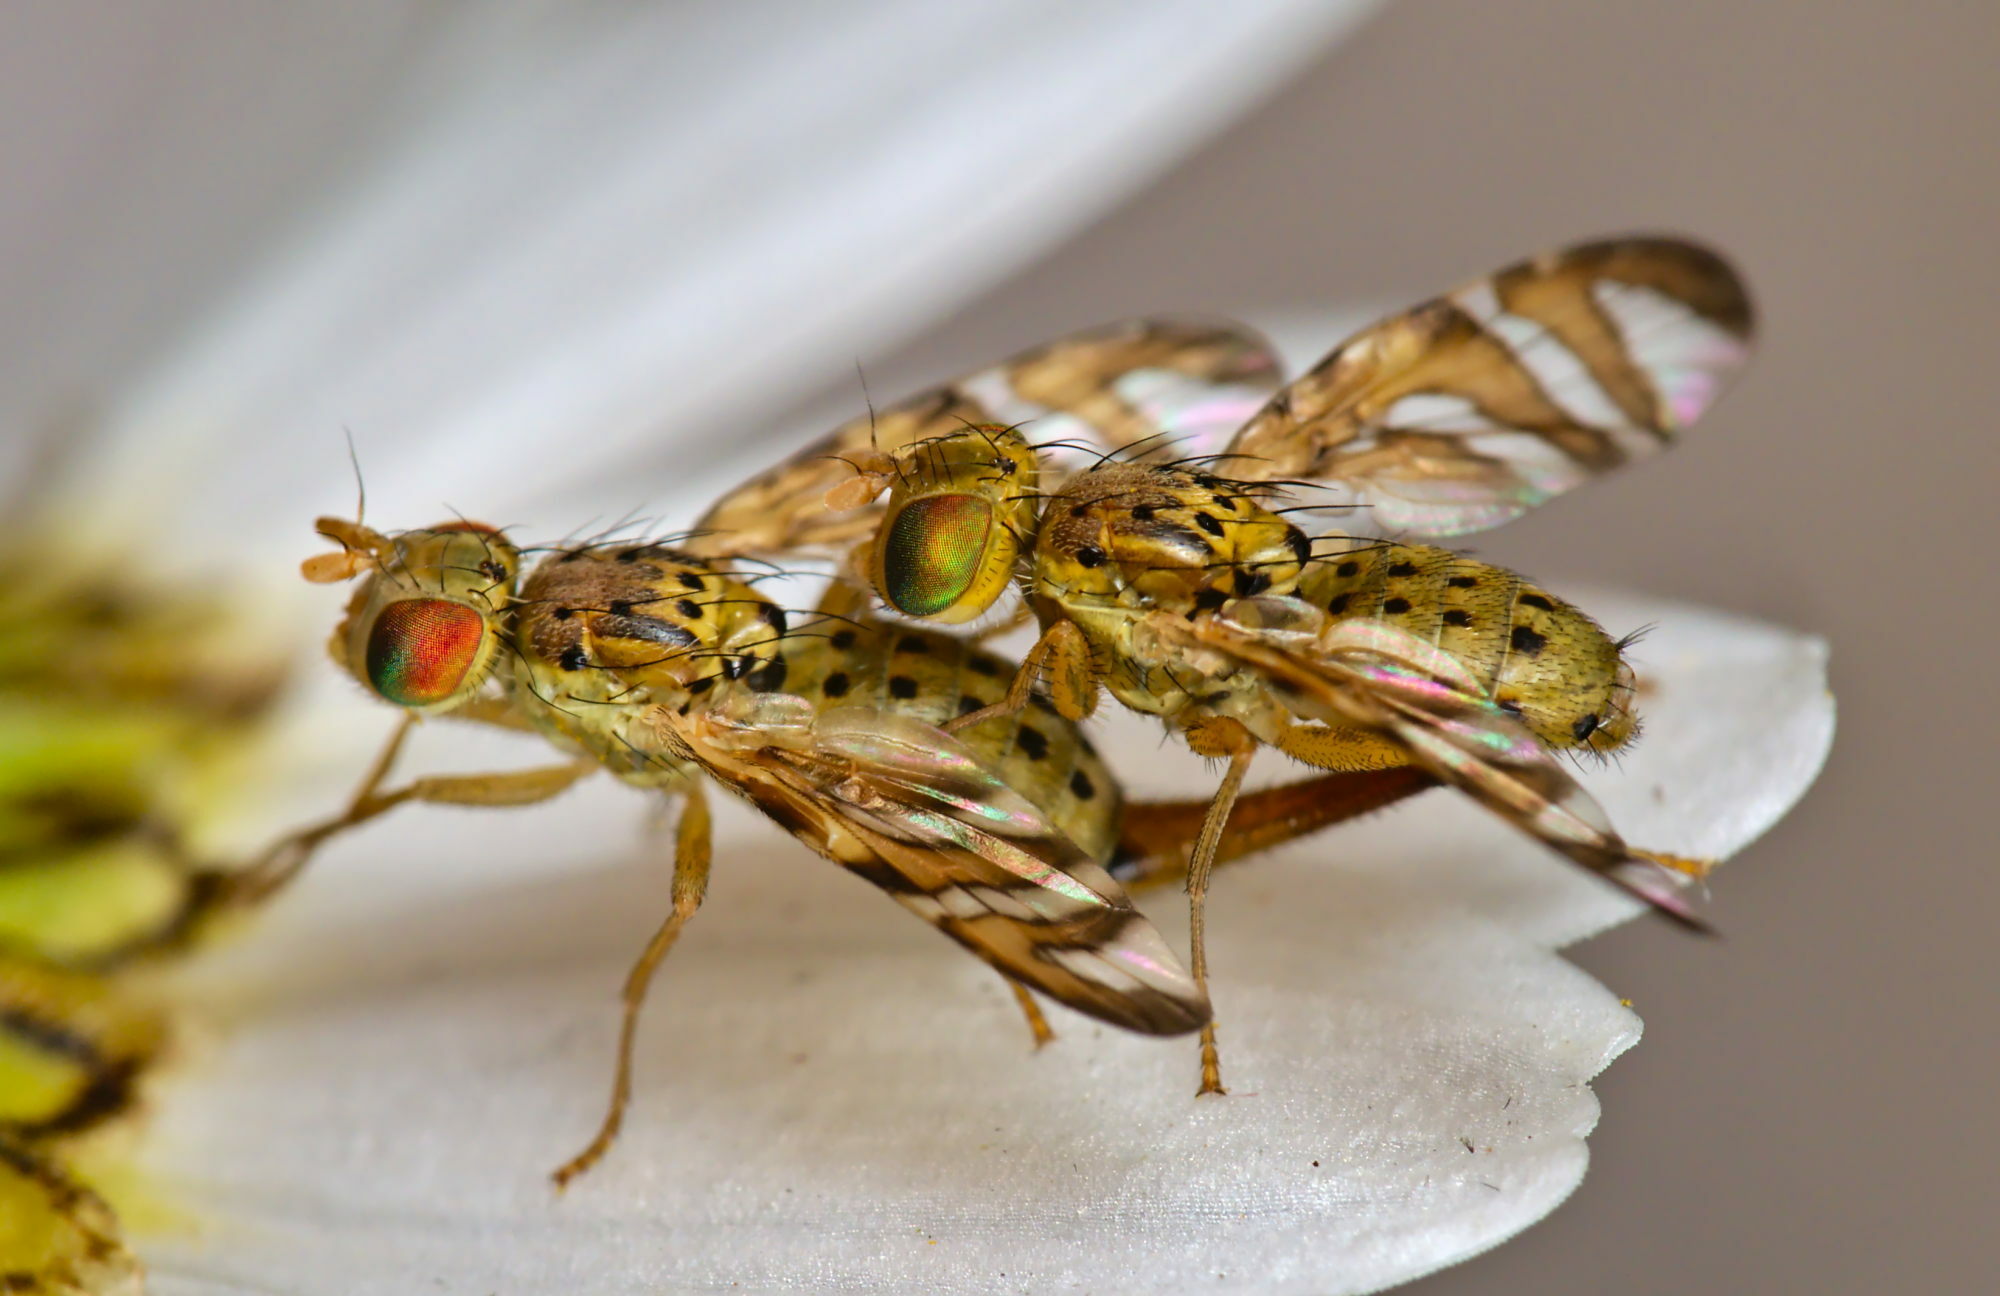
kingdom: Animalia
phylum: Arthropoda
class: Insecta
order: Diptera
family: Tephritidae
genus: Chaetorellia
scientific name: Chaetorellia jaceae
